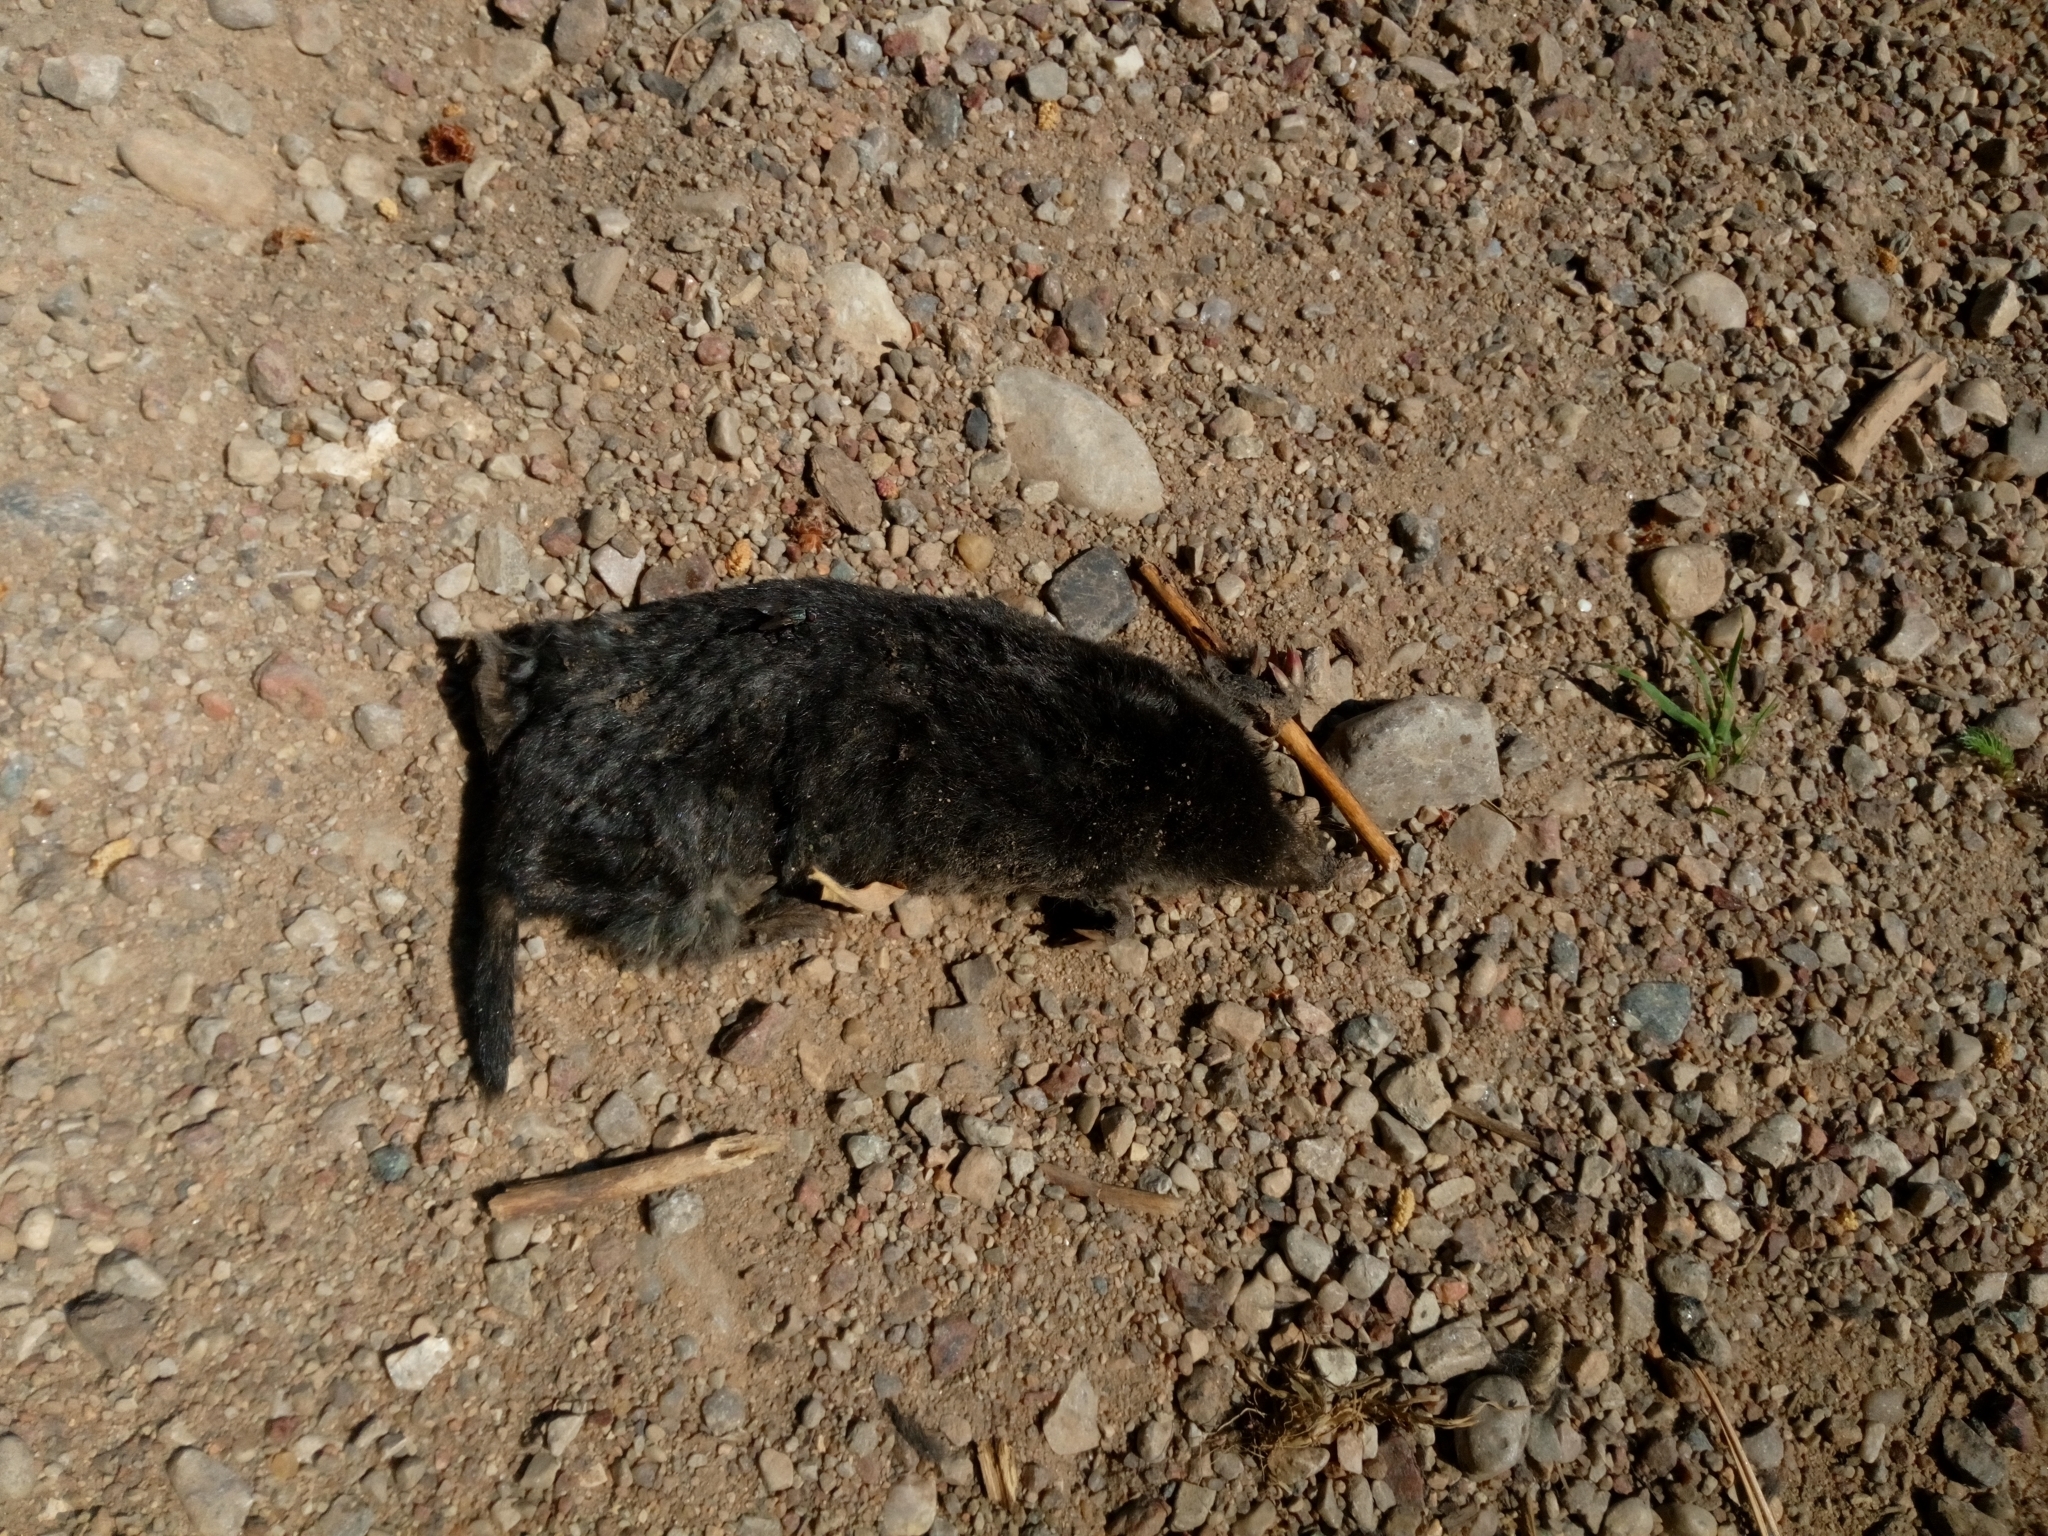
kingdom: Animalia
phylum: Chordata
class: Mammalia
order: Soricomorpha
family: Talpidae
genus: Talpa
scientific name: Talpa europaea
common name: European mole
